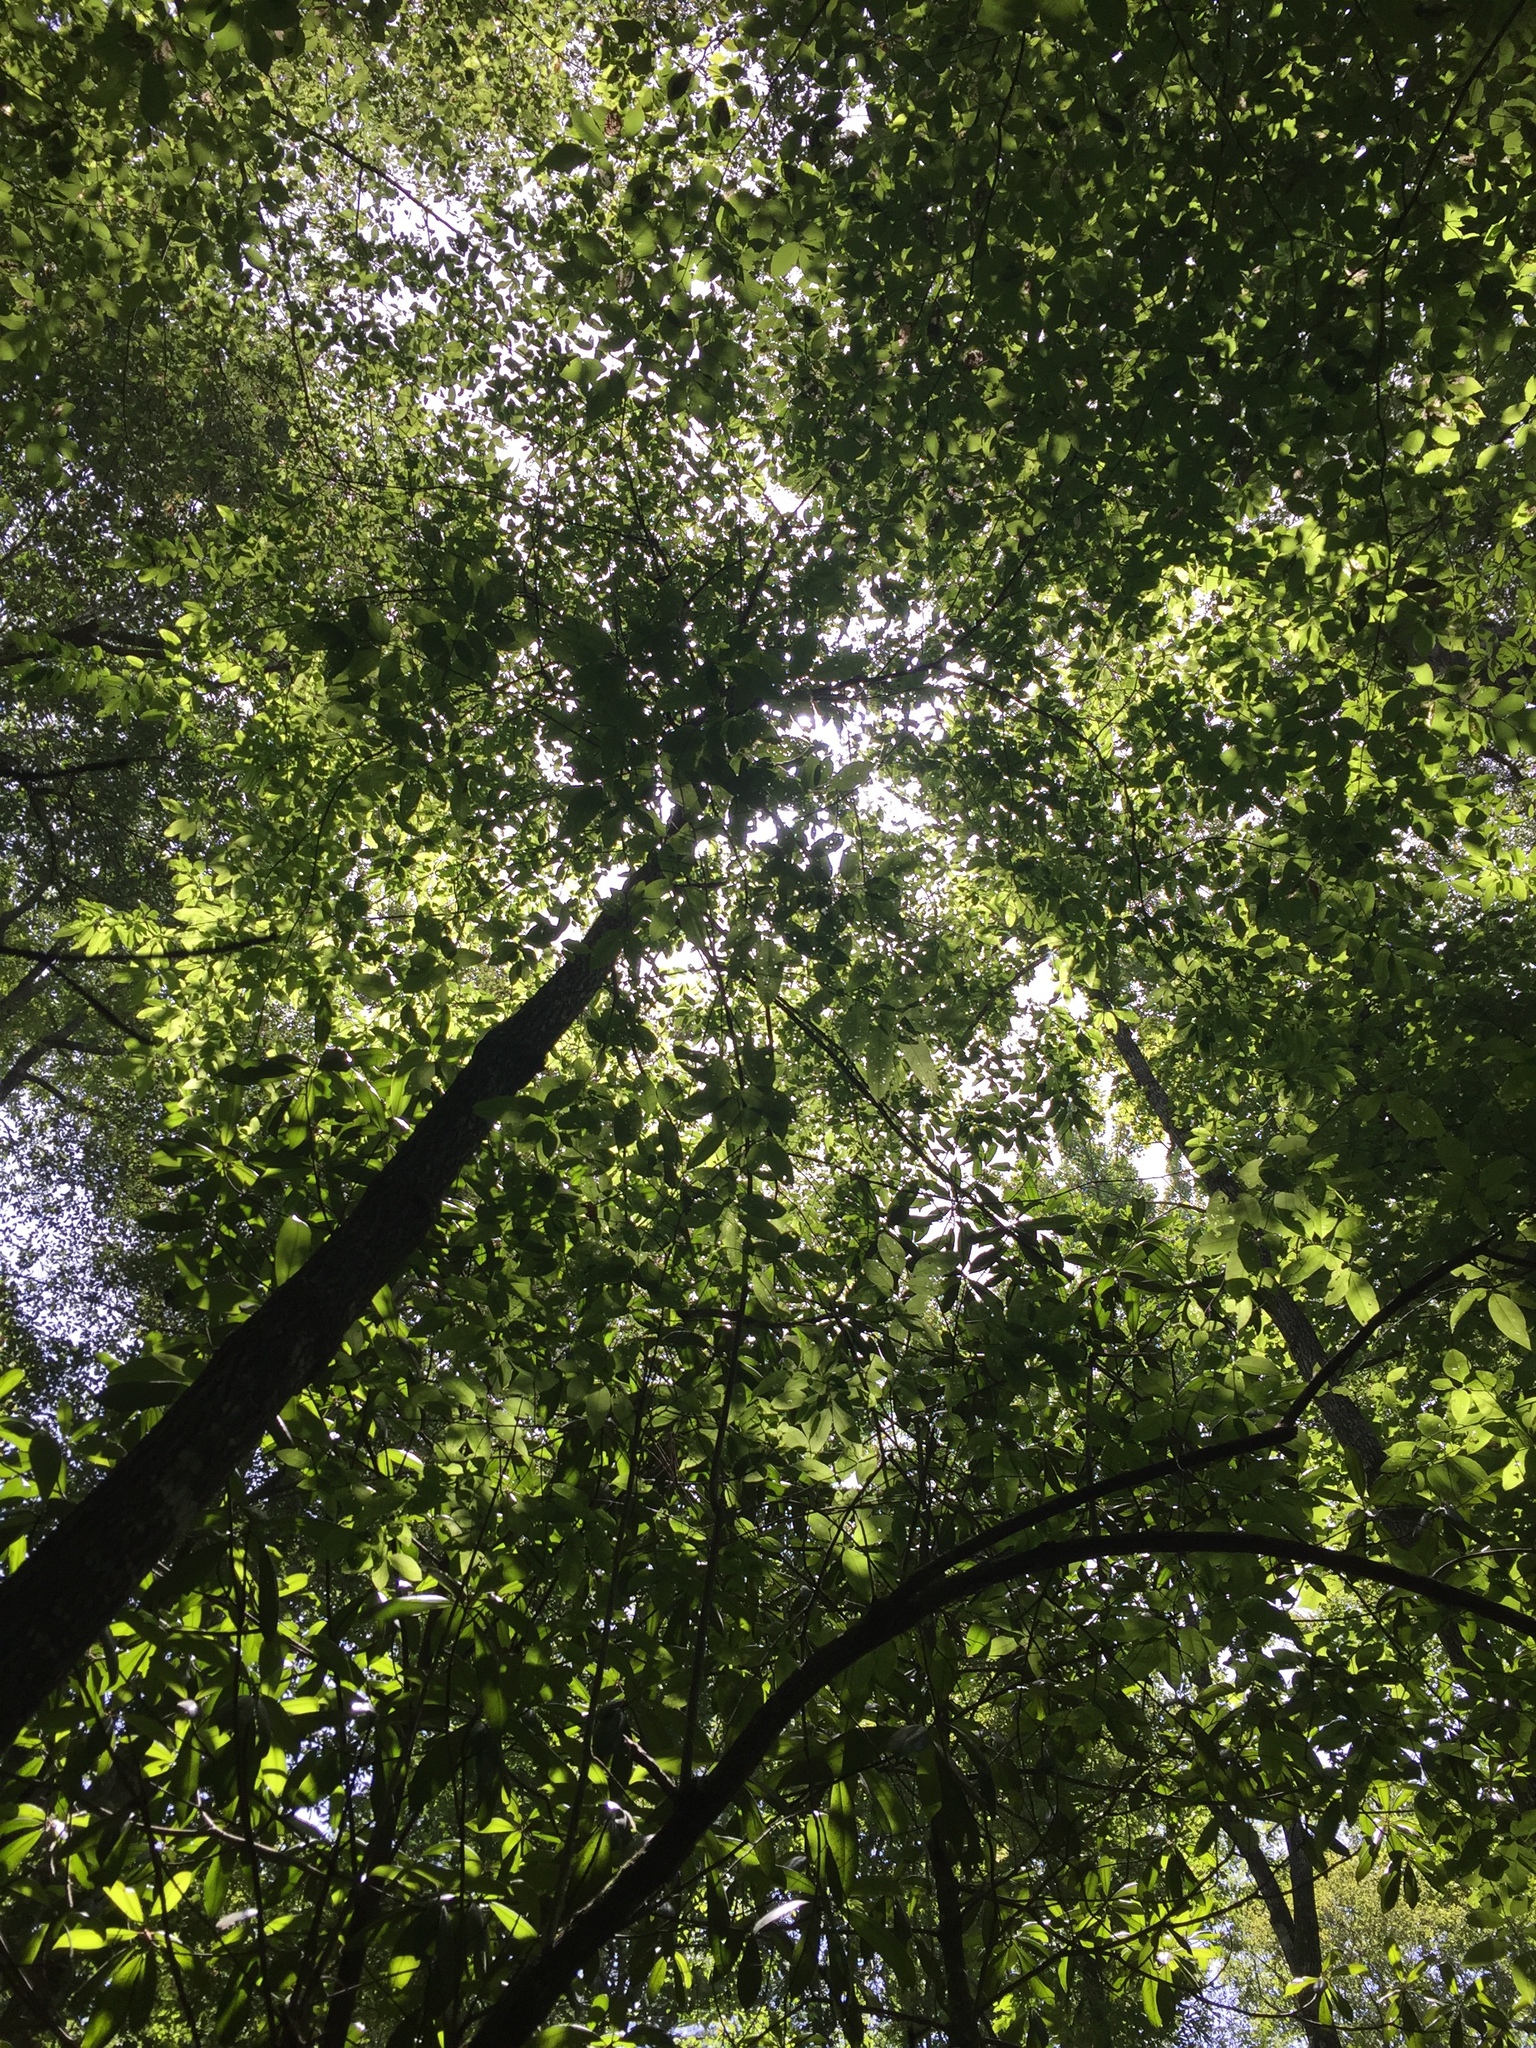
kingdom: Plantae
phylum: Tracheophyta
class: Magnoliopsida
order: Ericales
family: Ericaceae
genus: Oxydendrum
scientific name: Oxydendrum arboreum
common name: Sourwood
